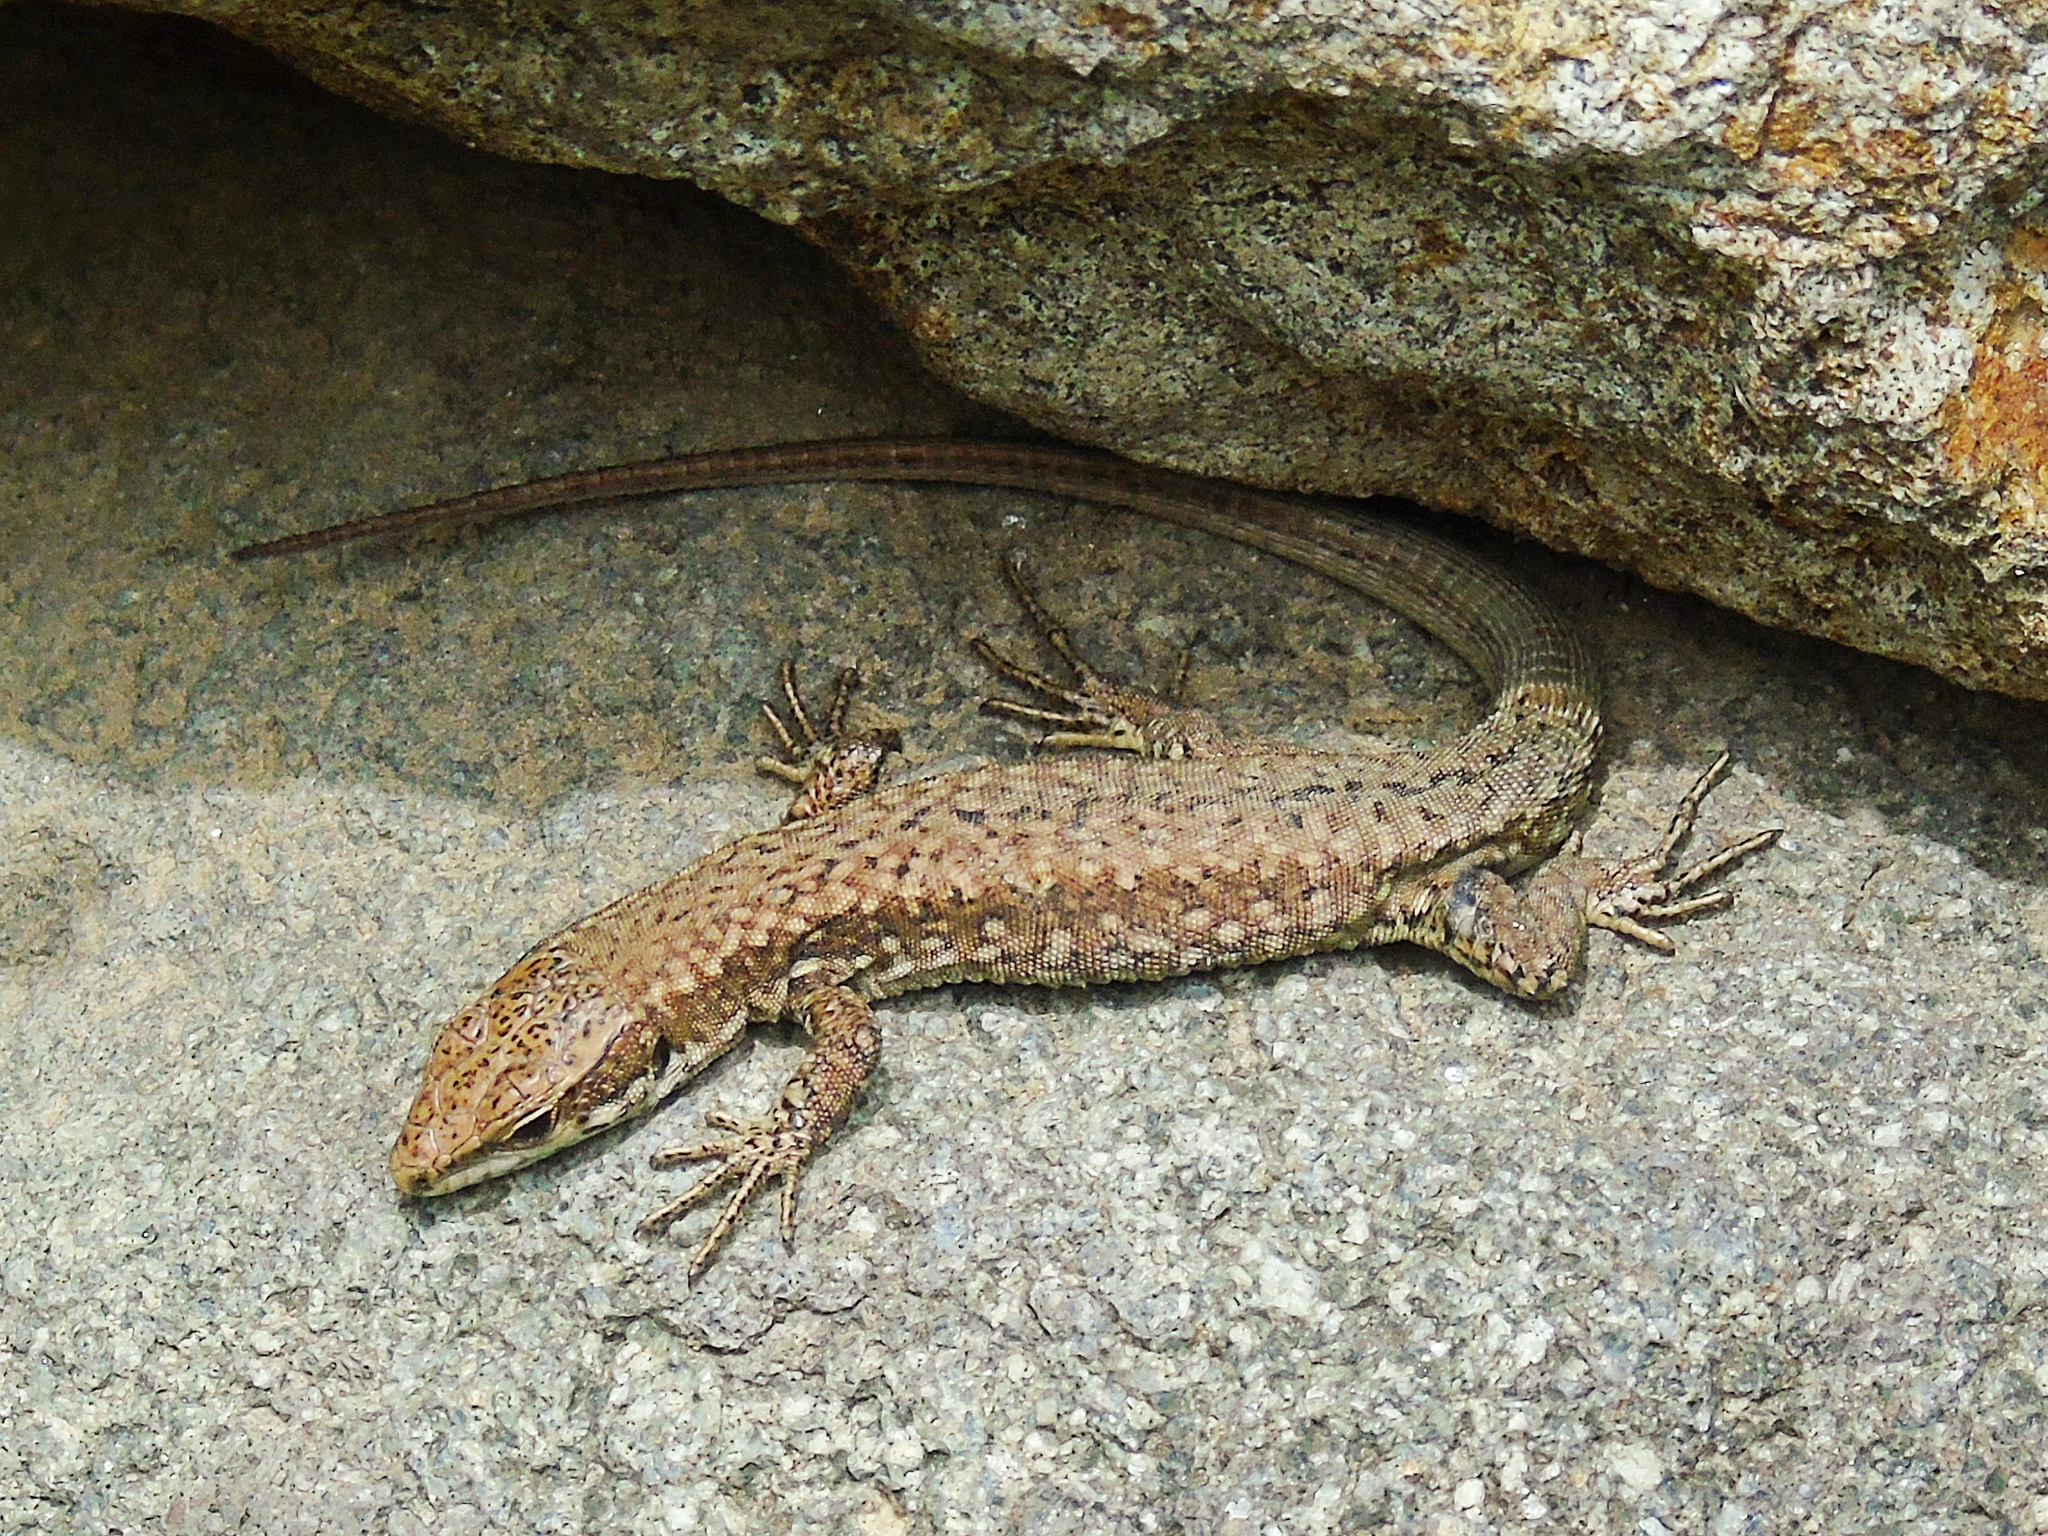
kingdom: Animalia
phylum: Chordata
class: Squamata
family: Lacertidae
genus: Podarcis
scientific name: Podarcis muralis
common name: Common wall lizard
